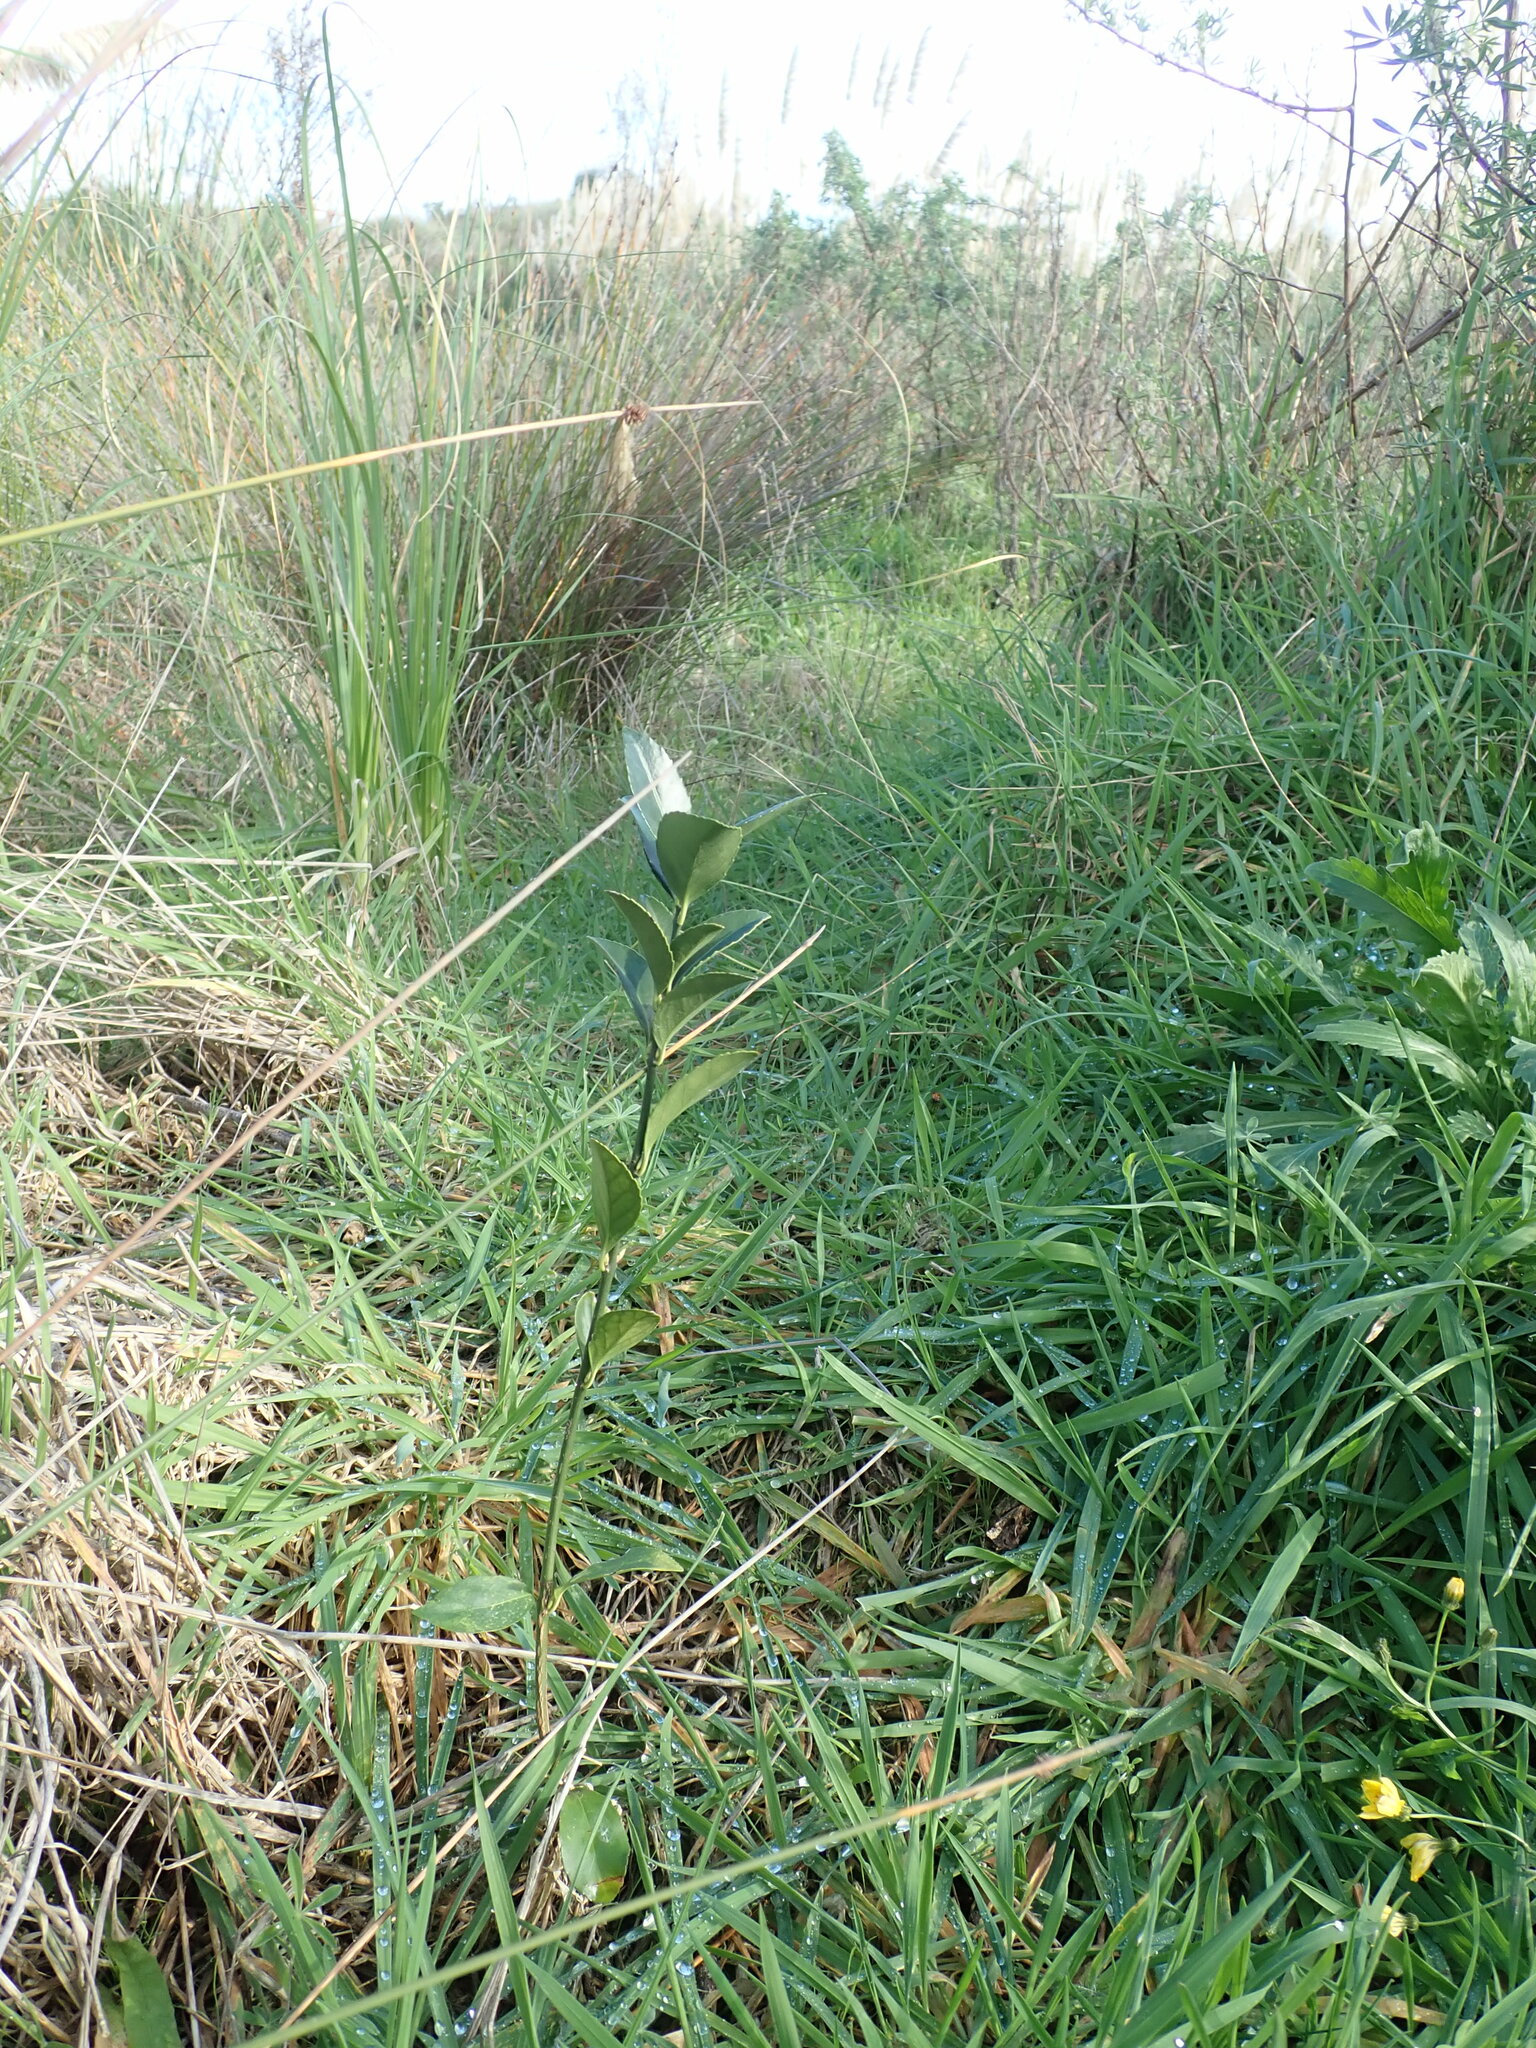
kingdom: Plantae
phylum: Tracheophyta
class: Magnoliopsida
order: Celastrales
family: Celastraceae
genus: Euonymus
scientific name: Euonymus japonicus
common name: Japanese spindletree
